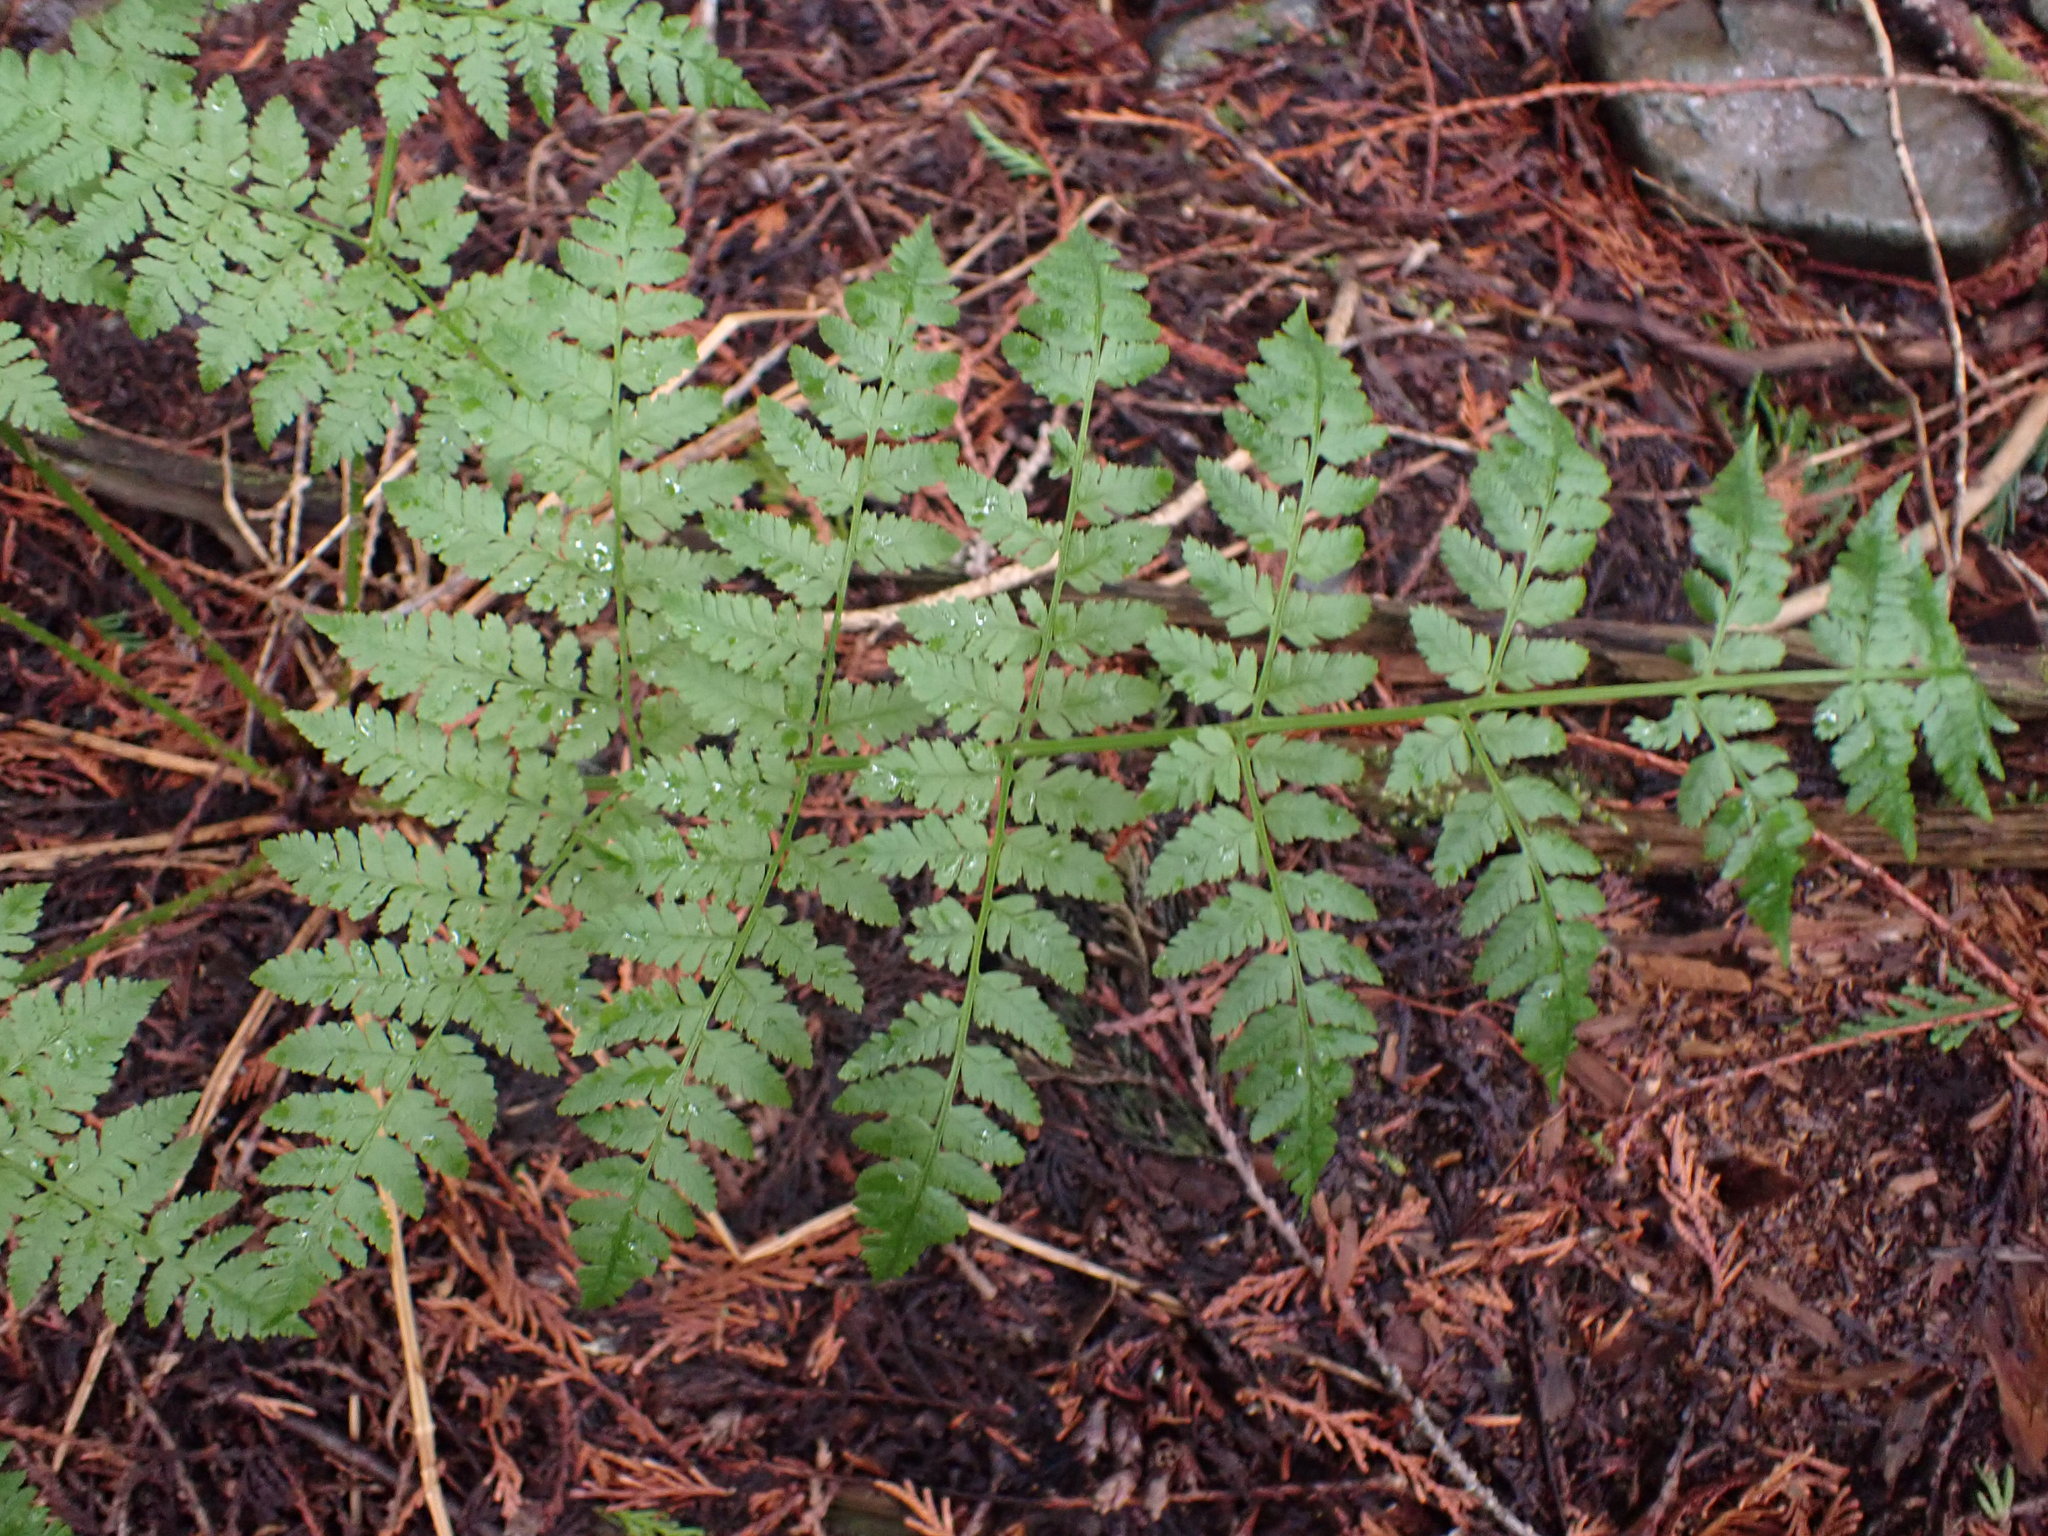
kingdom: Plantae
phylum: Tracheophyta
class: Polypodiopsida
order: Polypodiales
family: Dryopteridaceae
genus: Dryopteris
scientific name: Dryopteris expansa
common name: Northern buckler fern
